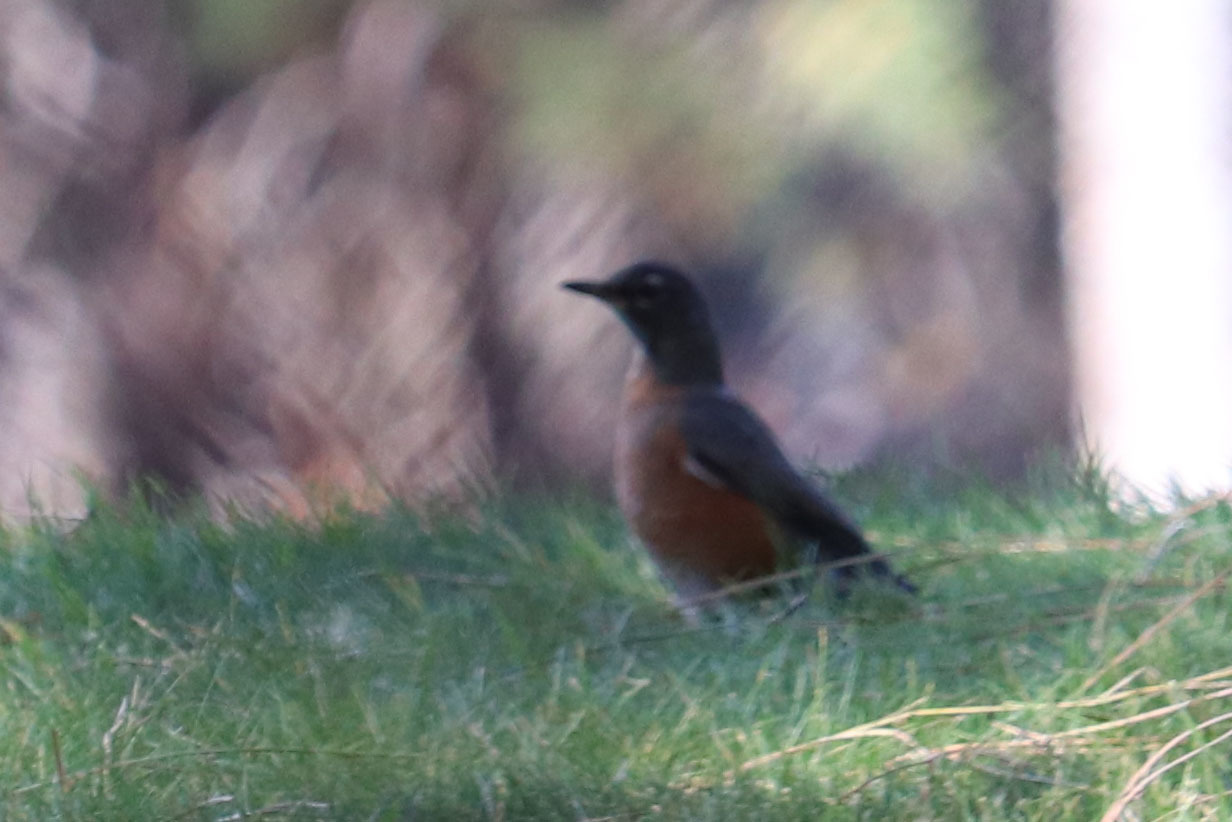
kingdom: Animalia
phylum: Chordata
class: Aves
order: Passeriformes
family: Turdidae
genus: Turdus
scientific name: Turdus migratorius
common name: American robin
